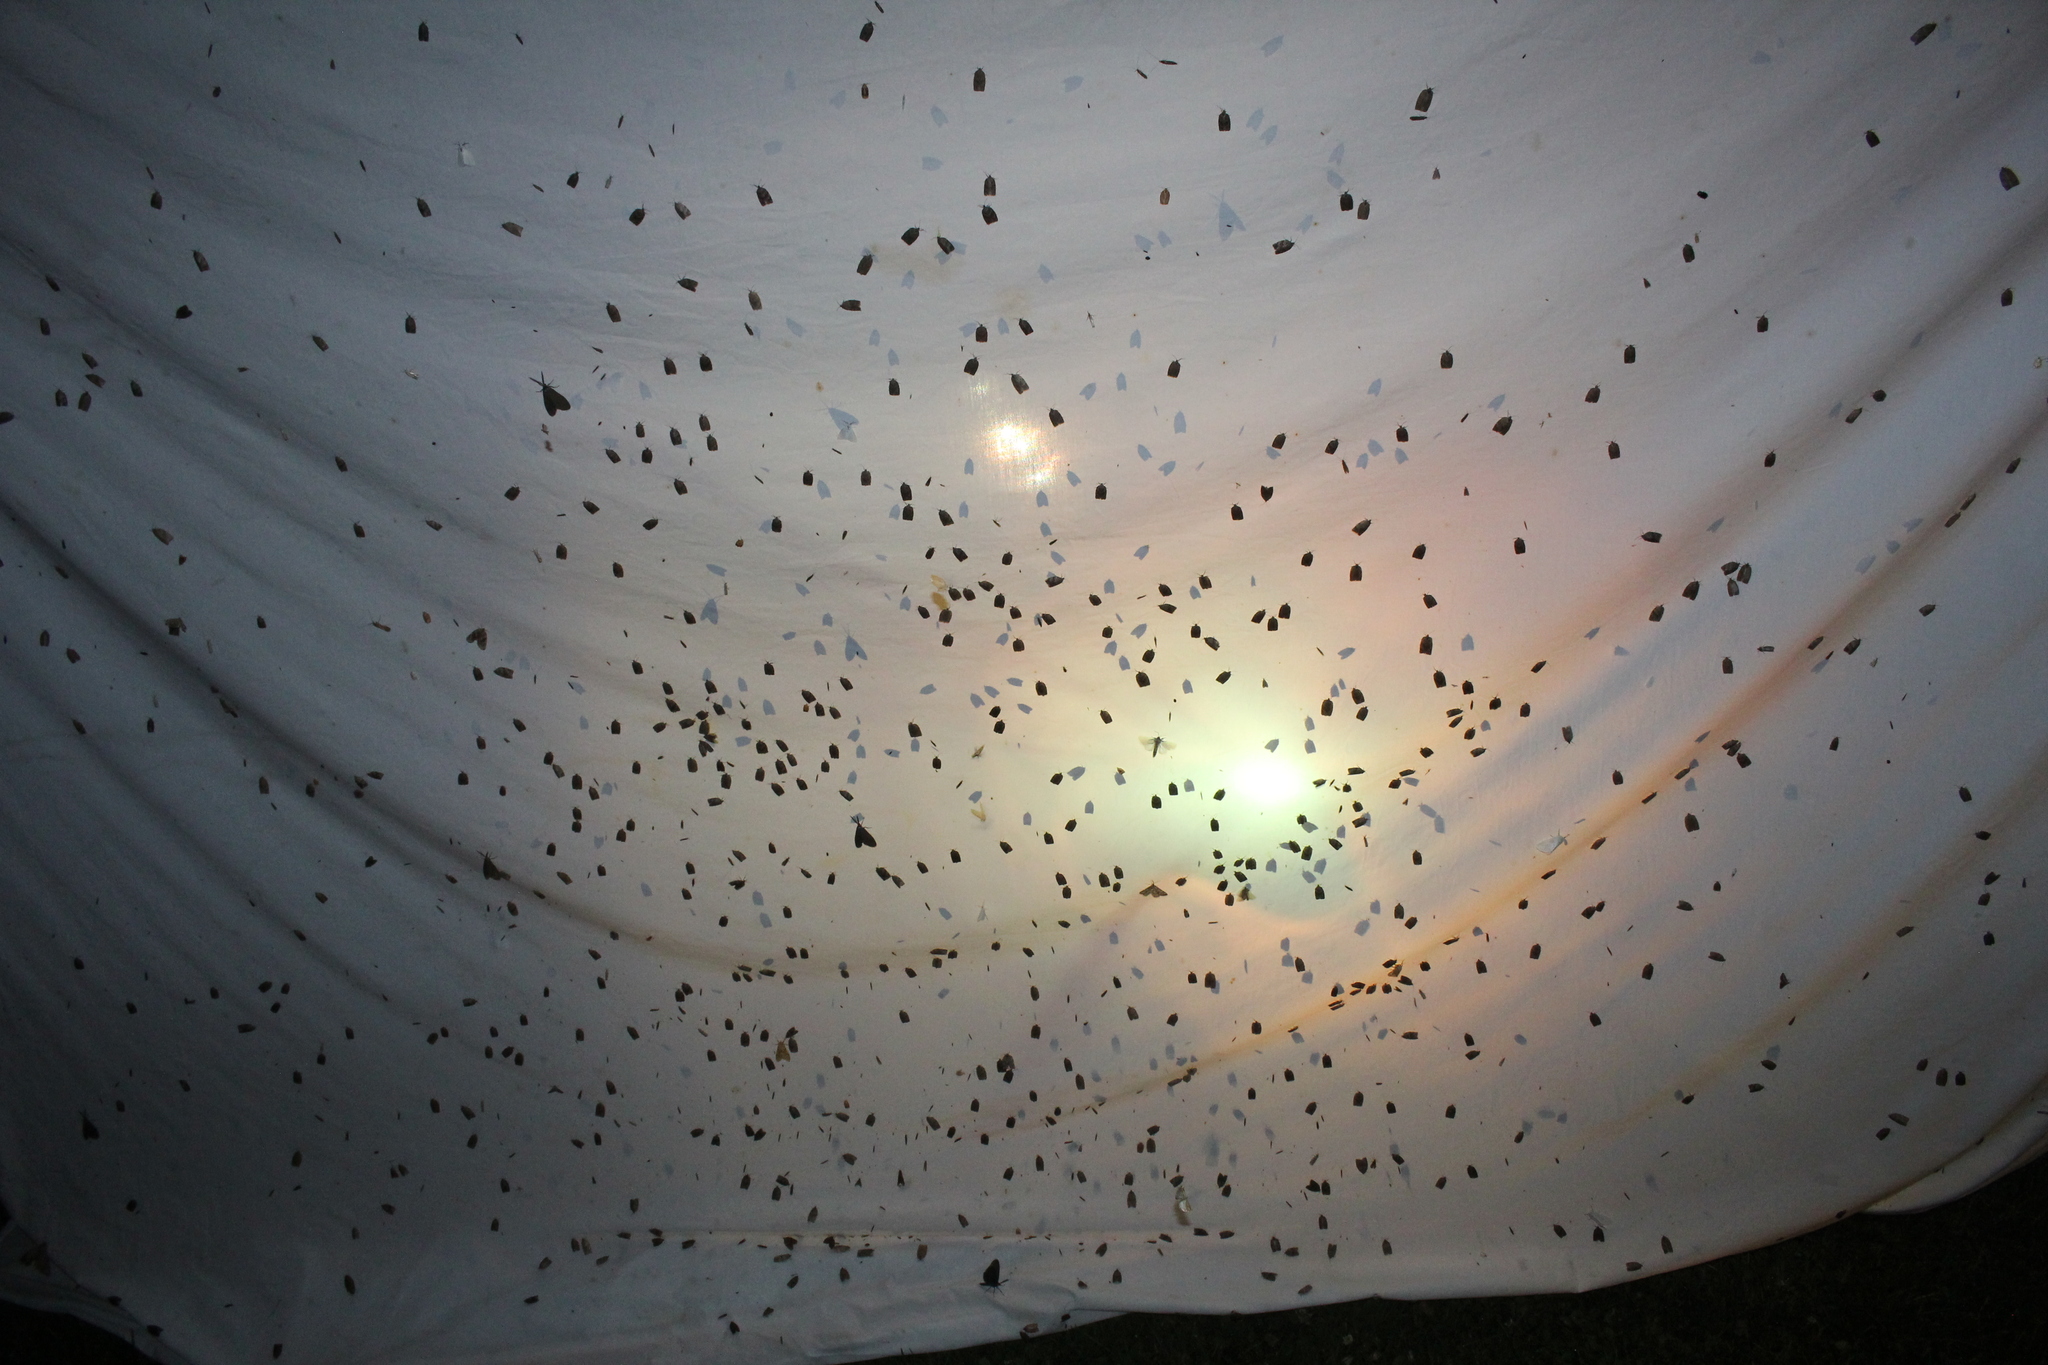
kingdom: Animalia
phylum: Arthropoda
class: Insecta
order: Lepidoptera
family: Tortricidae
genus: Choristoneura
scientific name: Choristoneura conflictana
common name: Large aspen tortrix
